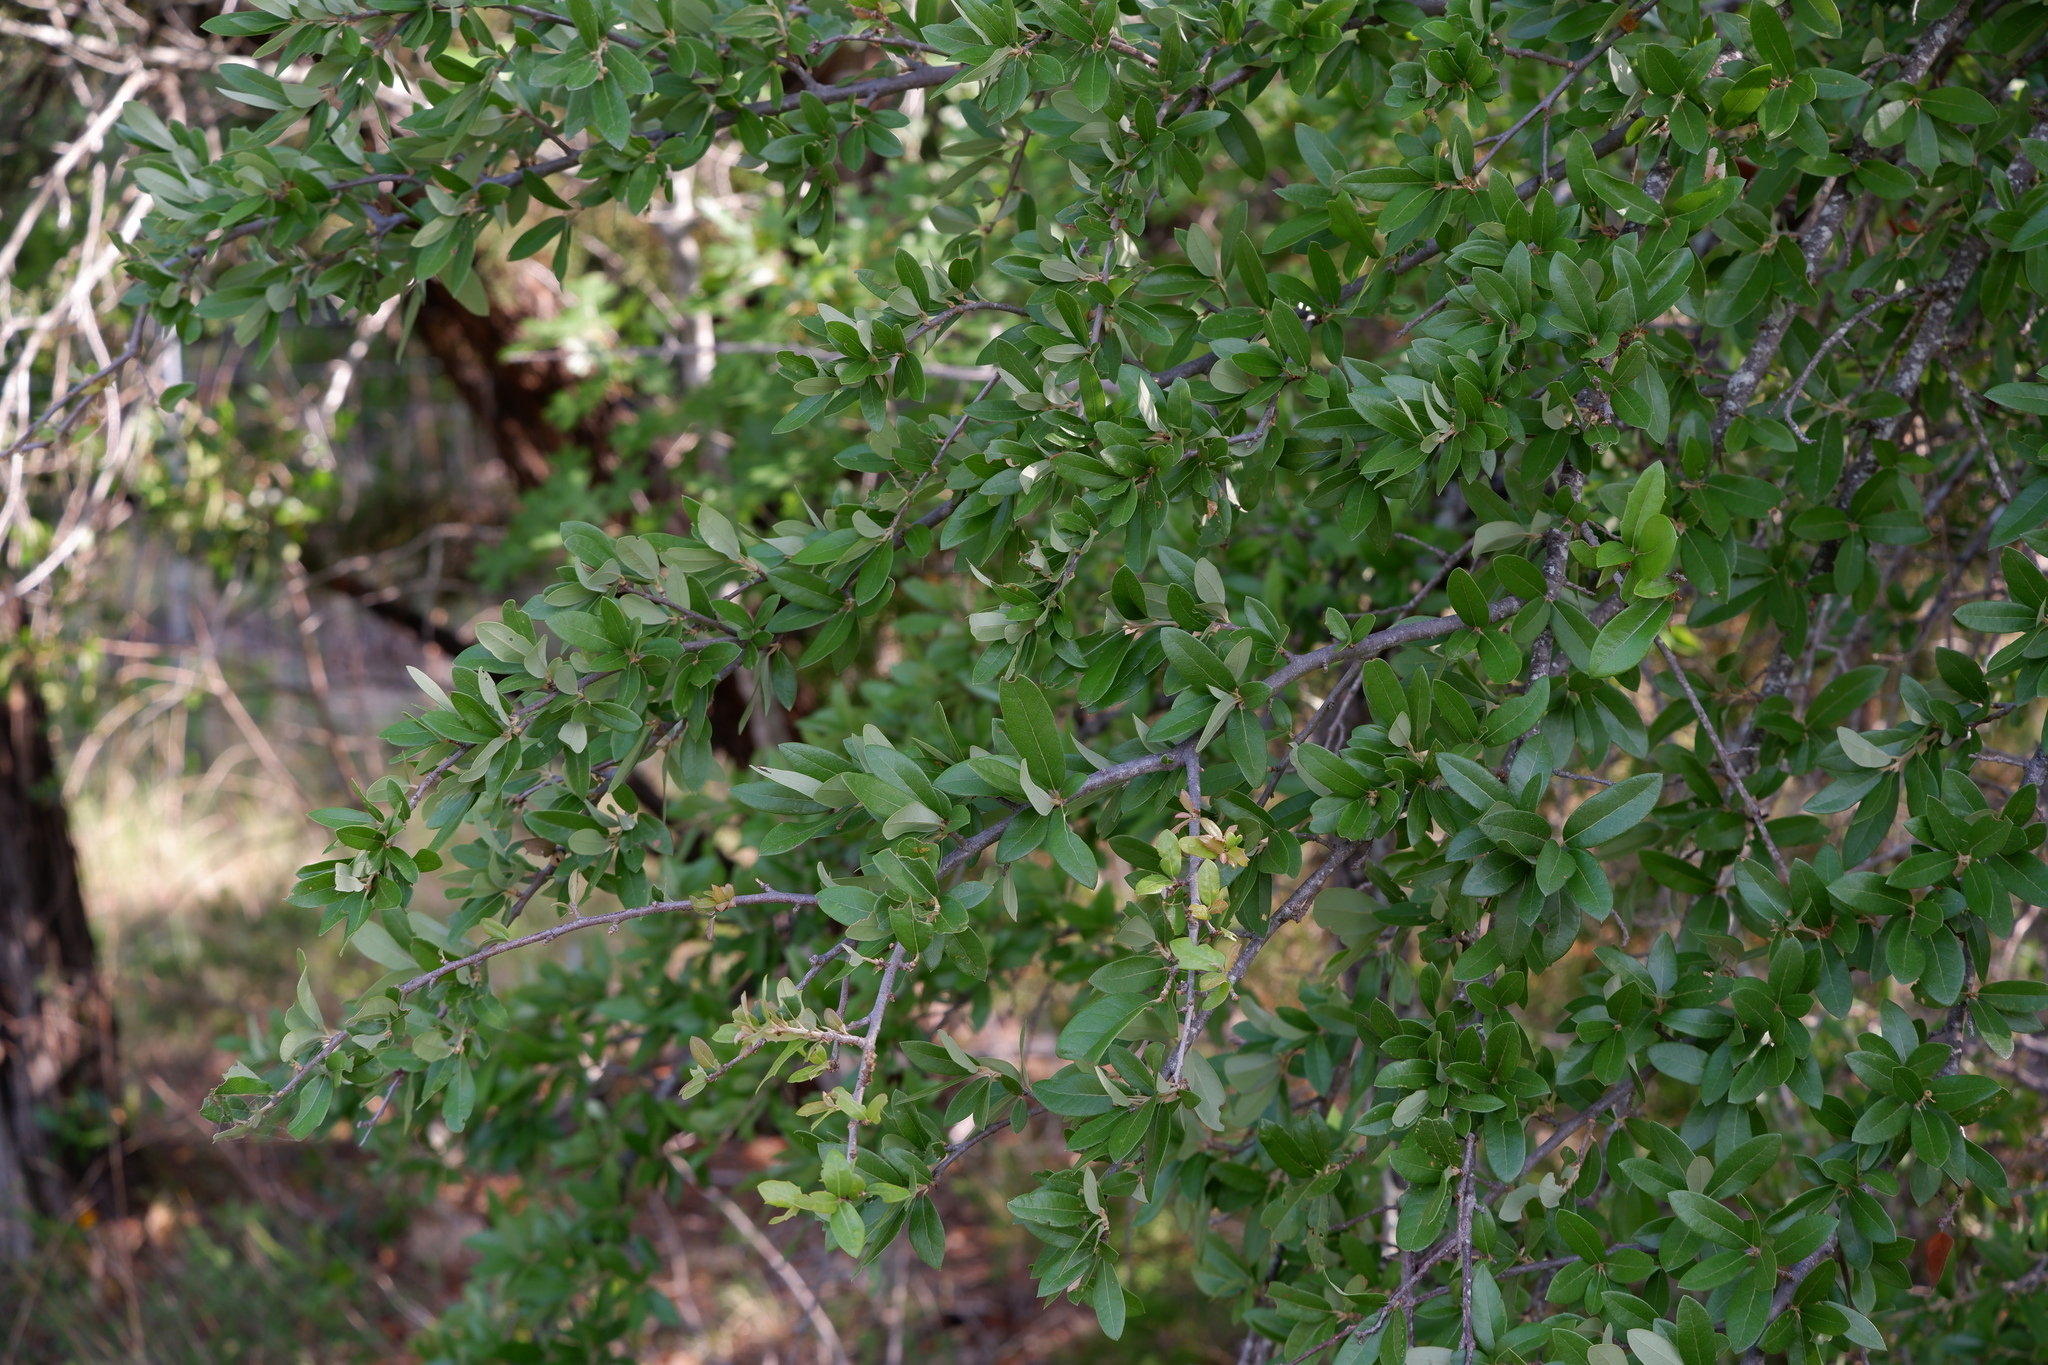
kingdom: Plantae
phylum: Tracheophyta
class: Magnoliopsida
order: Fagales
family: Fagaceae
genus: Quercus
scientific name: Quercus fusiformis
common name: Texas live oak
